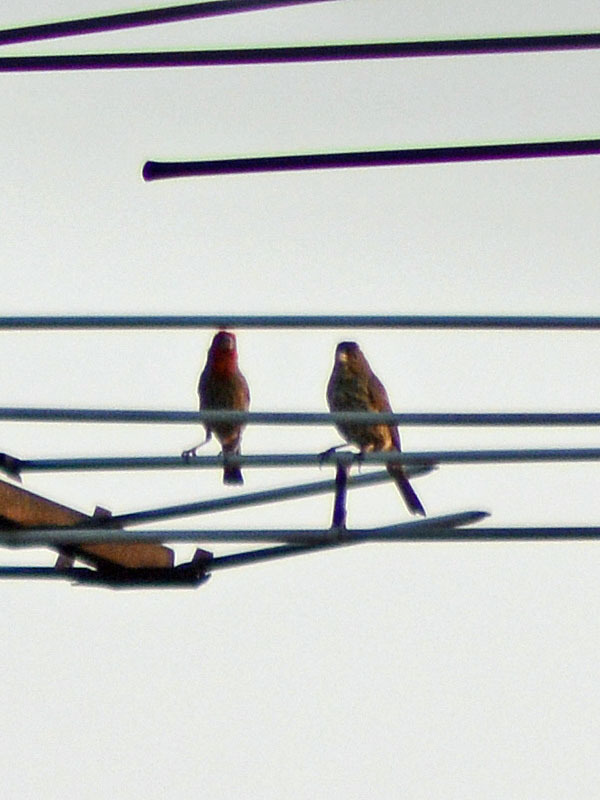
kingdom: Animalia
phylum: Chordata
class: Aves
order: Passeriformes
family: Fringillidae
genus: Haemorhous
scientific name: Haemorhous mexicanus
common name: House finch
